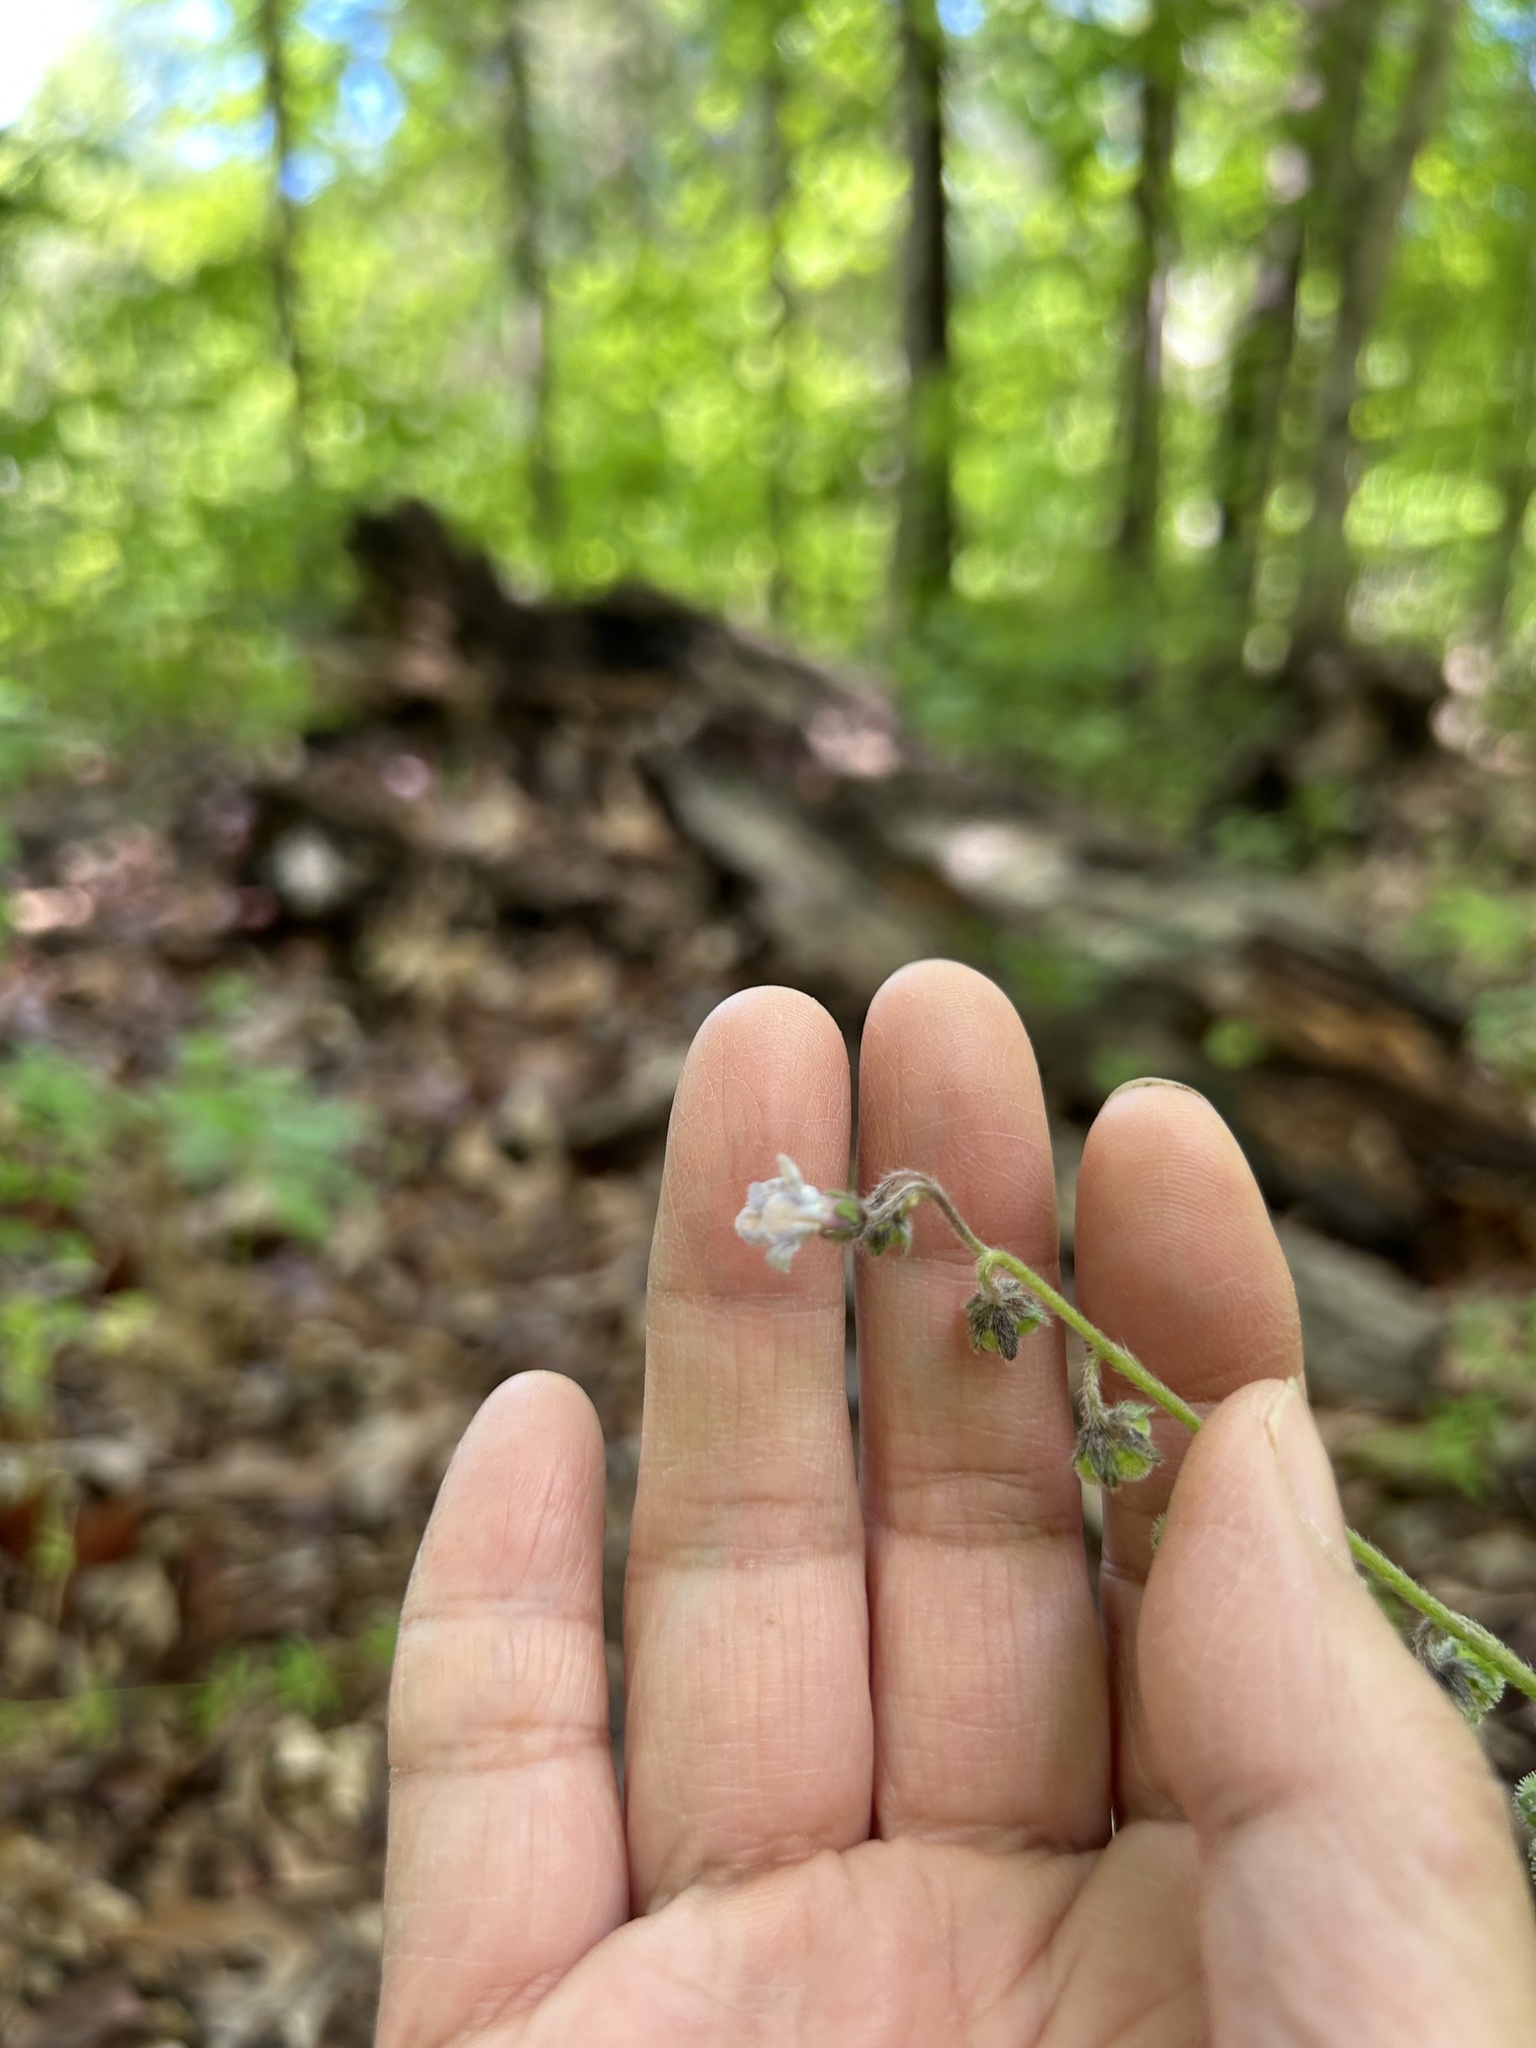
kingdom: Plantae
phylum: Tracheophyta
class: Magnoliopsida
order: Boraginales
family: Boraginaceae
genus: Andersonglossum
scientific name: Andersonglossum virginianum
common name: Wild comfrey
